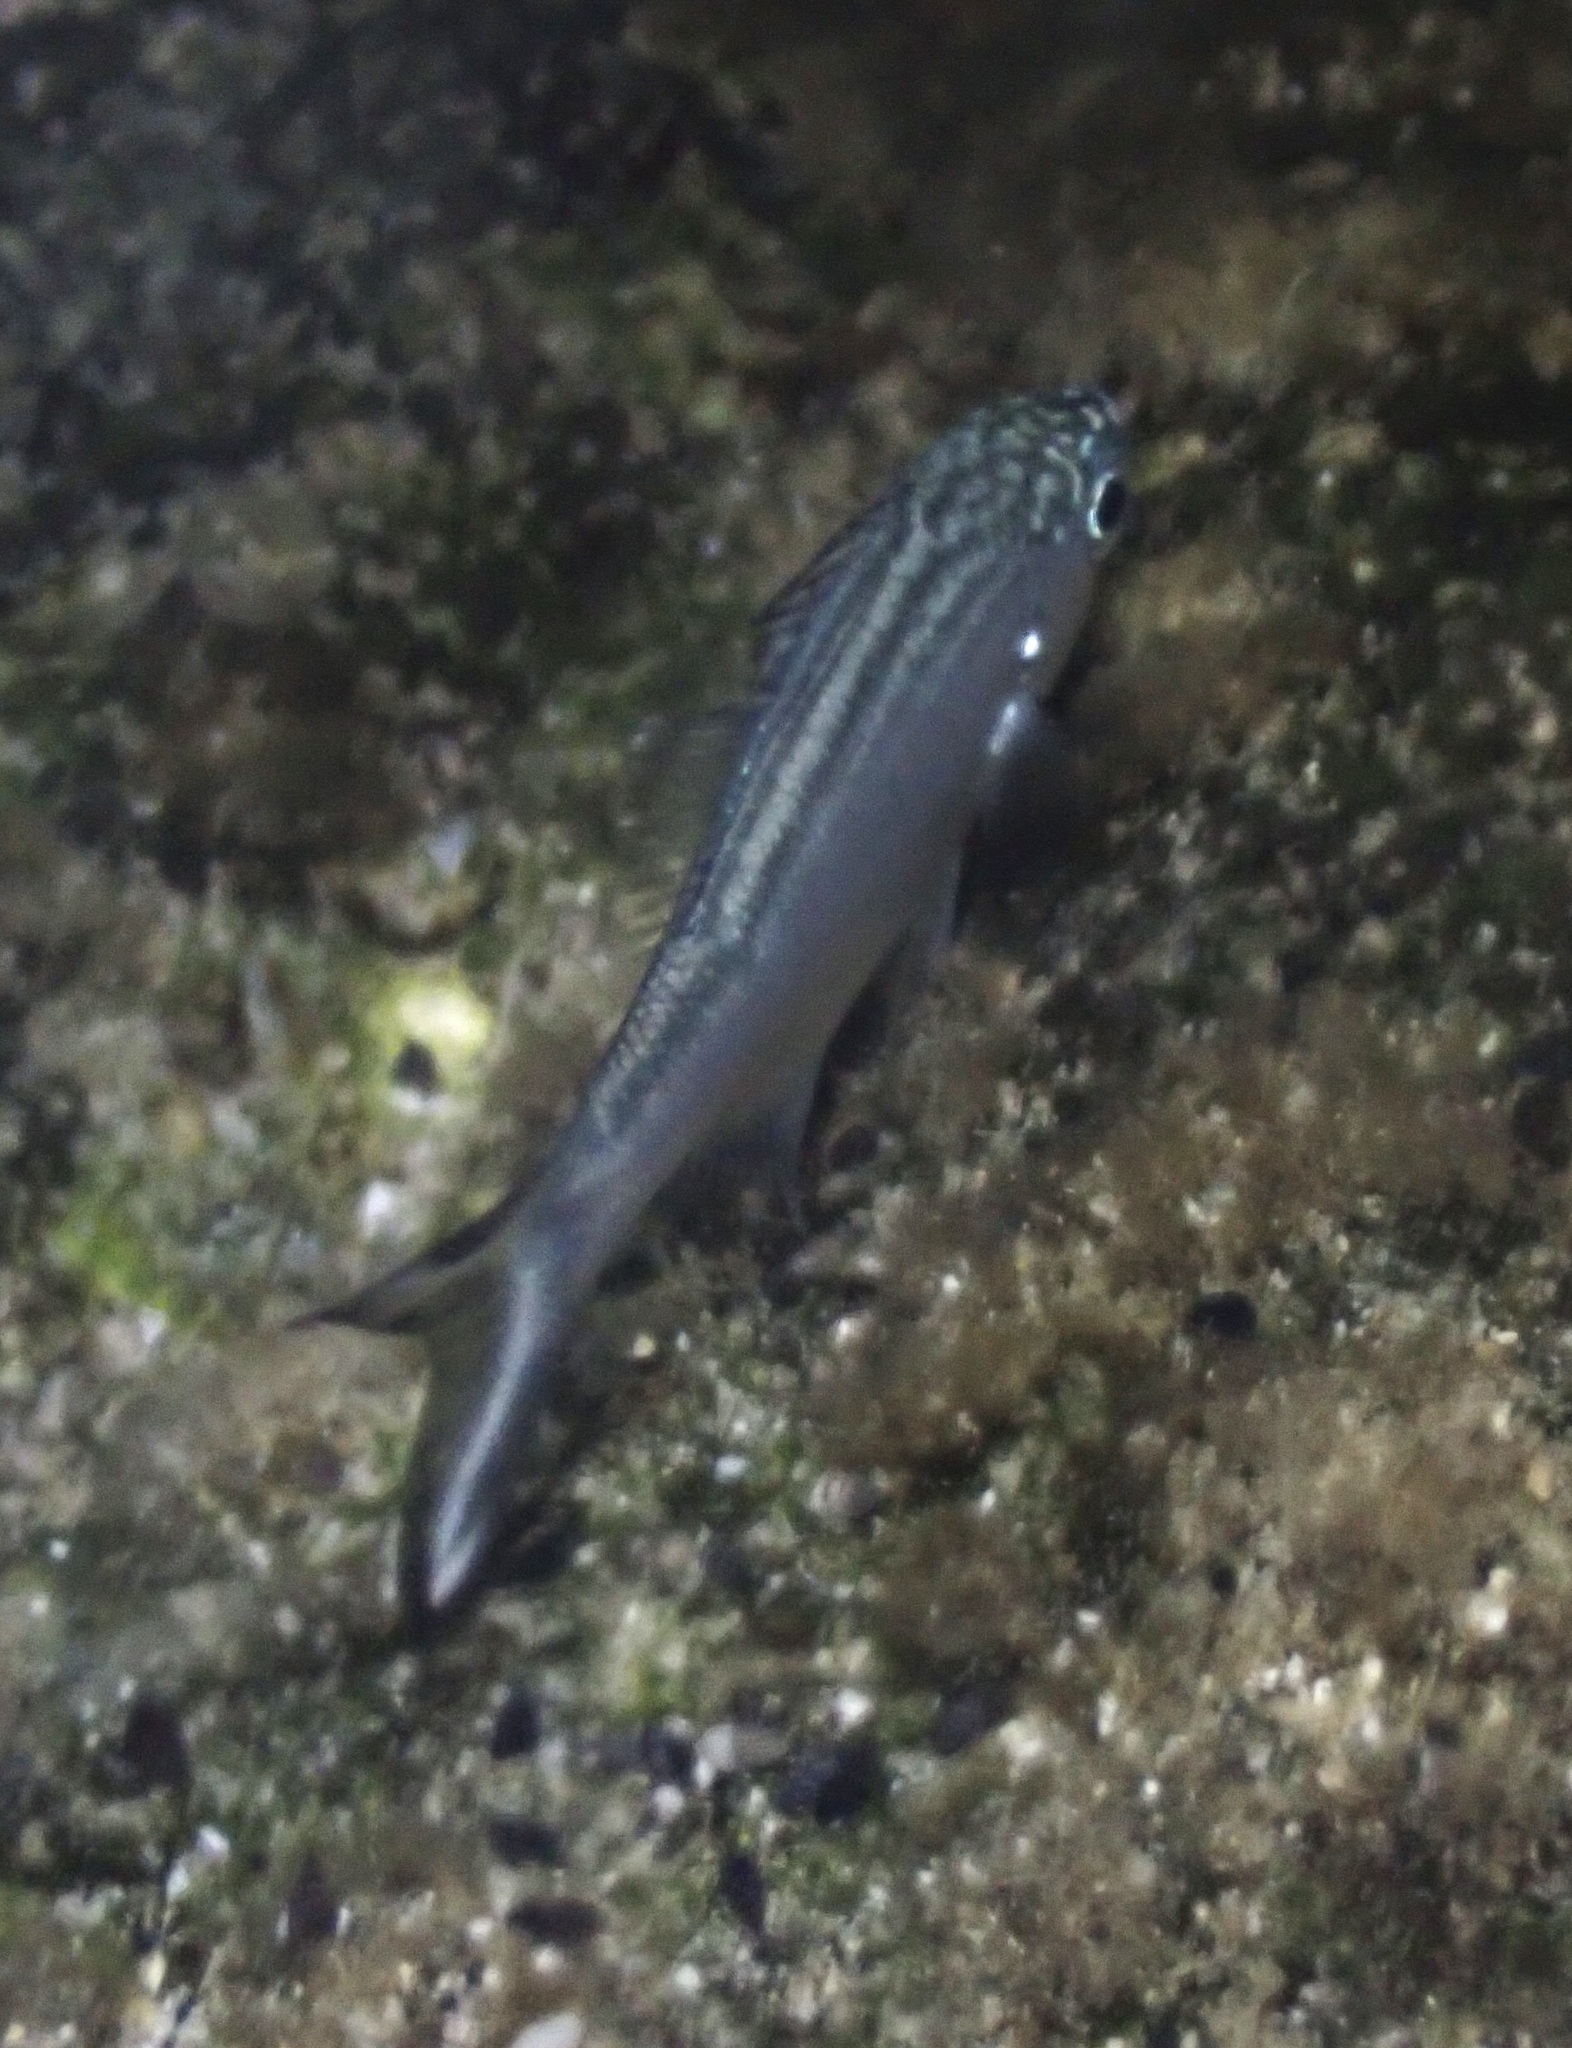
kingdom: Animalia
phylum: Chordata
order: Perciformes
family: Kuhliidae
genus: Kuhlia
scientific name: Kuhlia sandvicensis
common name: Hawaiian flagtail
